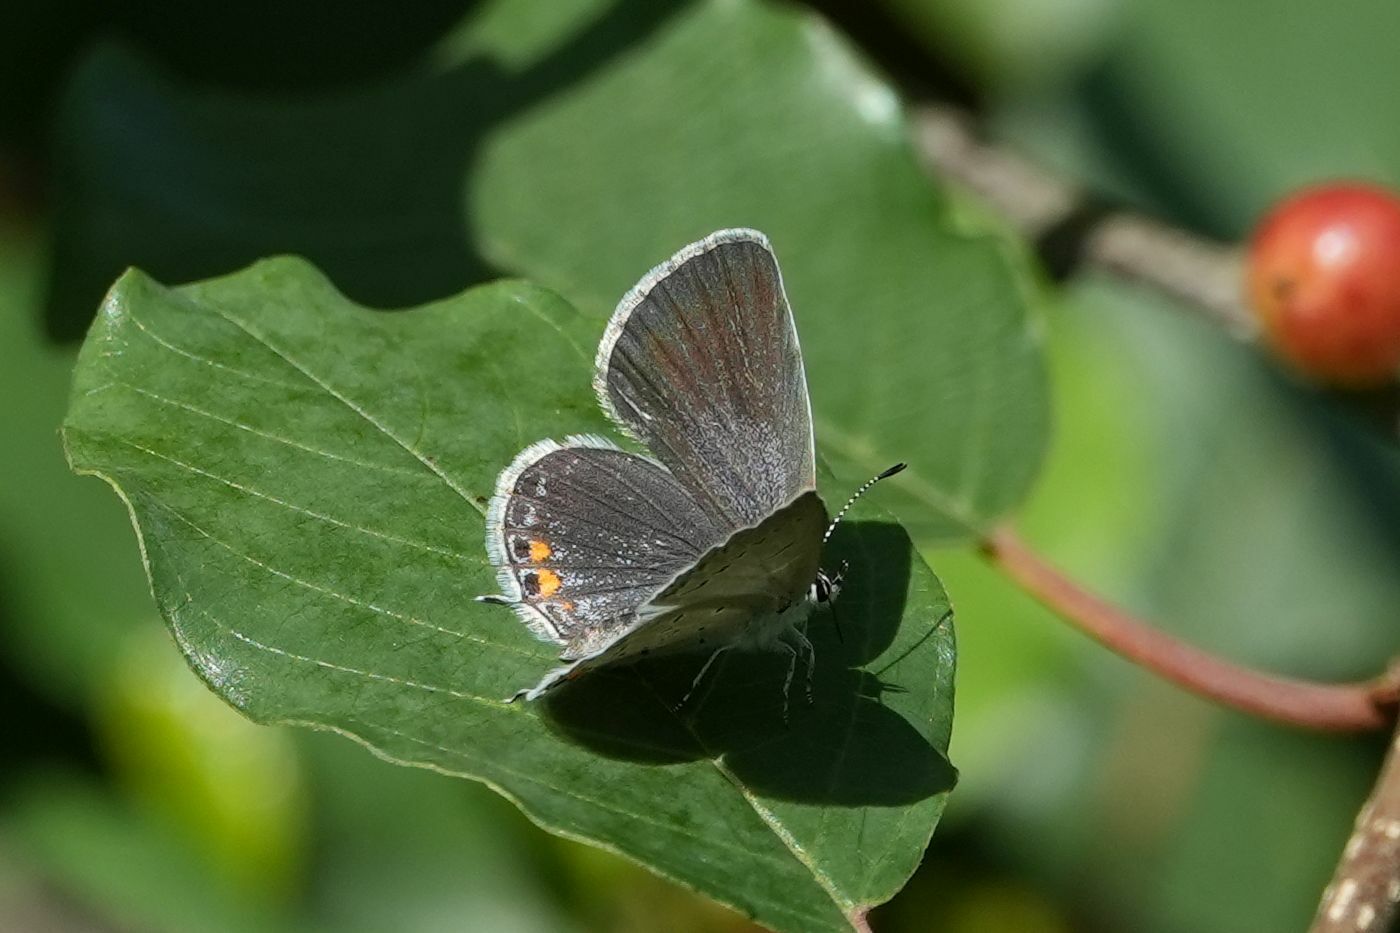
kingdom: Animalia
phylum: Arthropoda
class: Insecta
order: Lepidoptera
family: Lycaenidae
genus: Elkalyce
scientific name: Elkalyce comyntas
